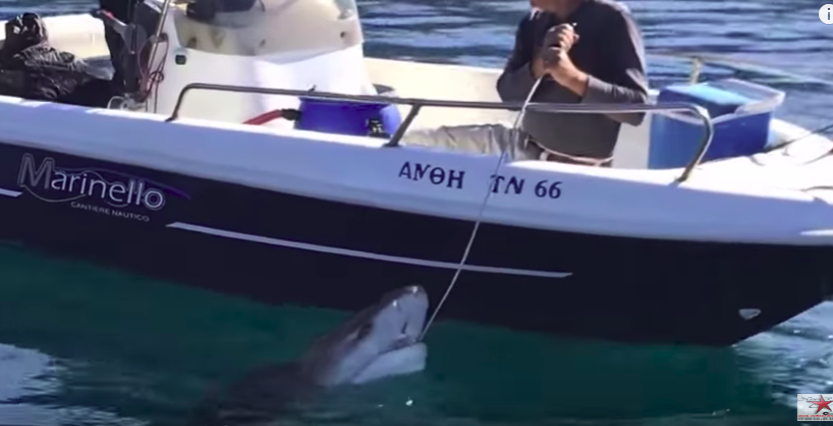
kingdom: Animalia
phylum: Chordata
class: Elasmobranchii
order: Hexanchiformes
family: Hexanchidae
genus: Hexanchus
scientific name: Hexanchus griseus
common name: Bluntnose sixgill shark
